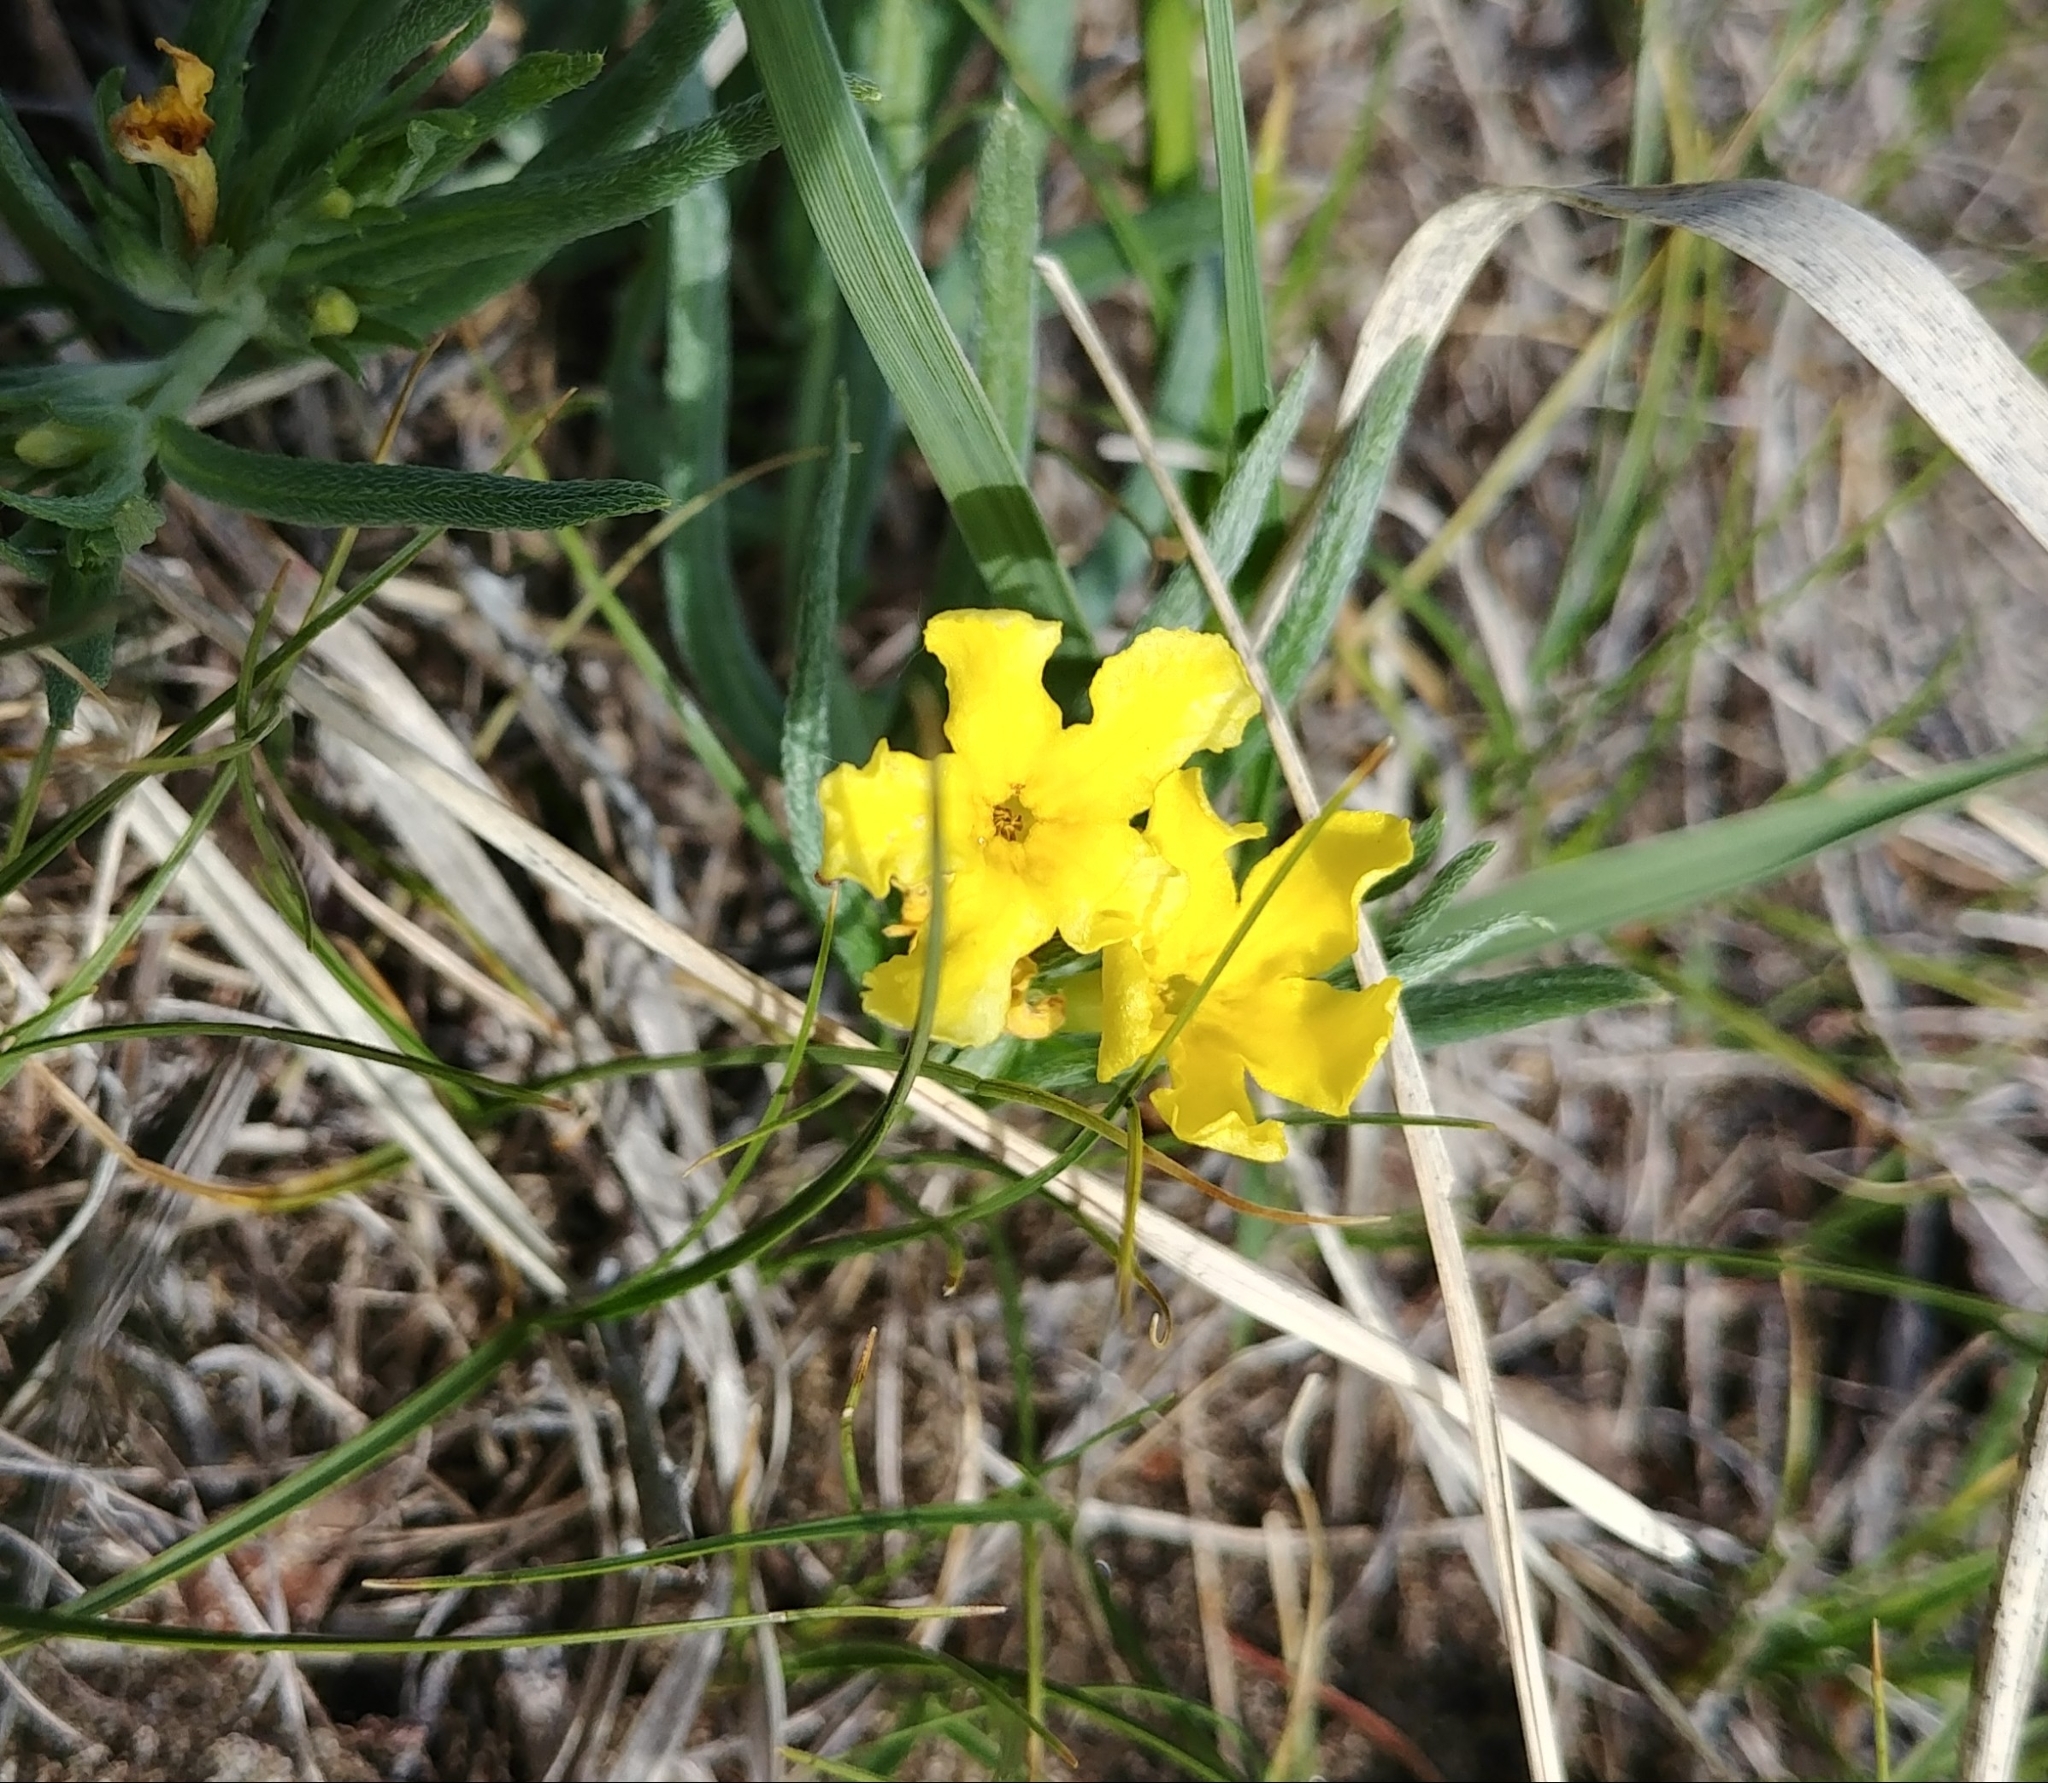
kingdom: Plantae
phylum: Tracheophyta
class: Magnoliopsida
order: Boraginales
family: Boraginaceae
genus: Lithospermum
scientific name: Lithospermum incisum
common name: Fringed gromwell
